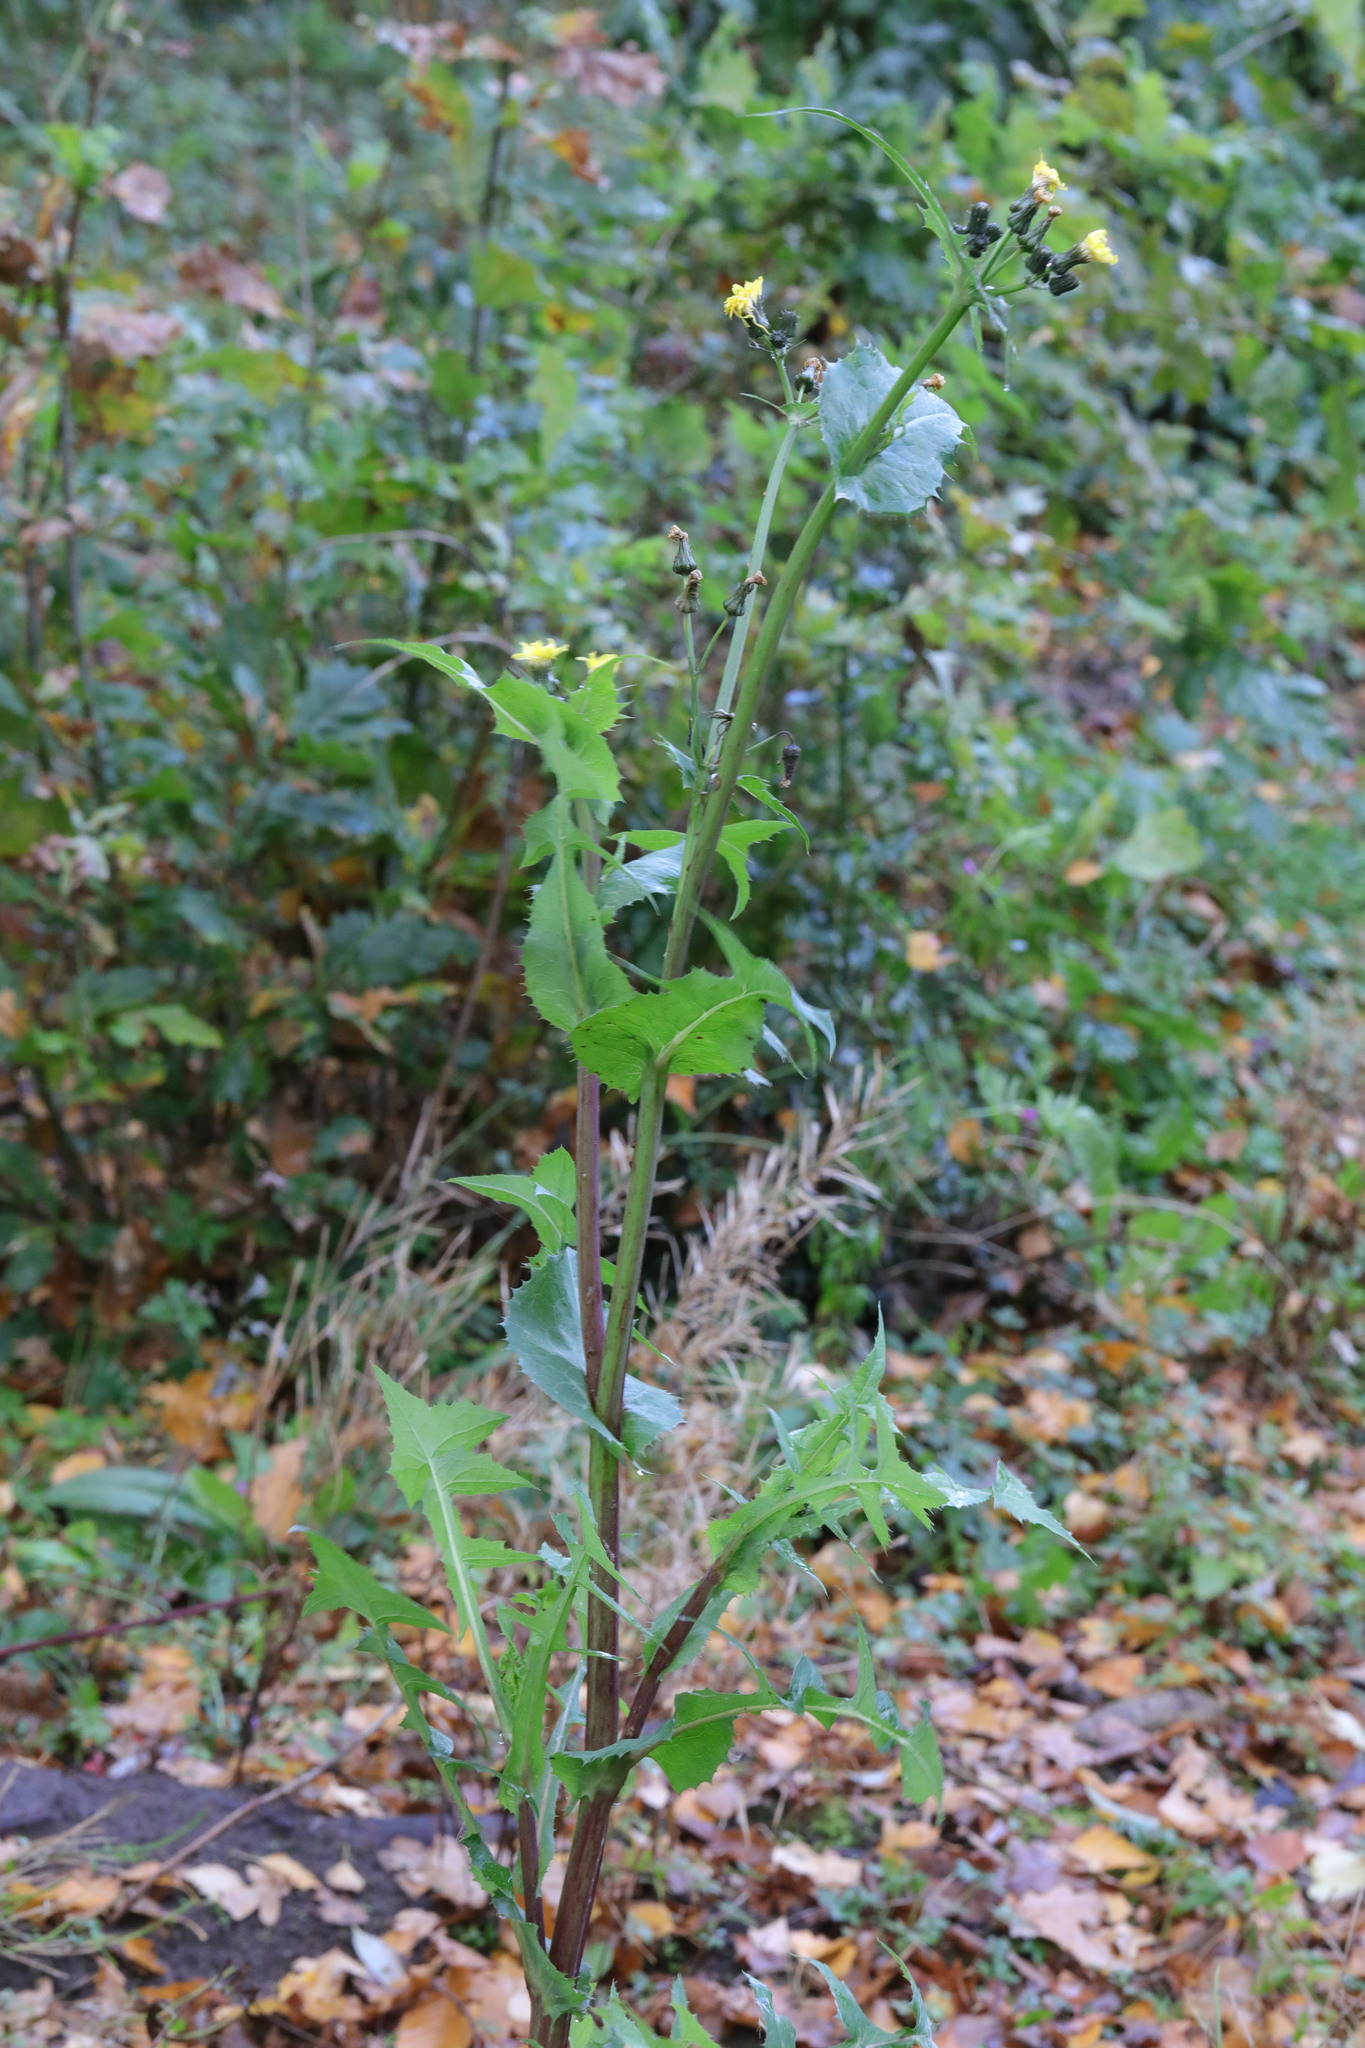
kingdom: Plantae
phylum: Tracheophyta
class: Magnoliopsida
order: Asterales
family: Asteraceae
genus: Sonchus
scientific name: Sonchus oleraceus
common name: Common sowthistle
